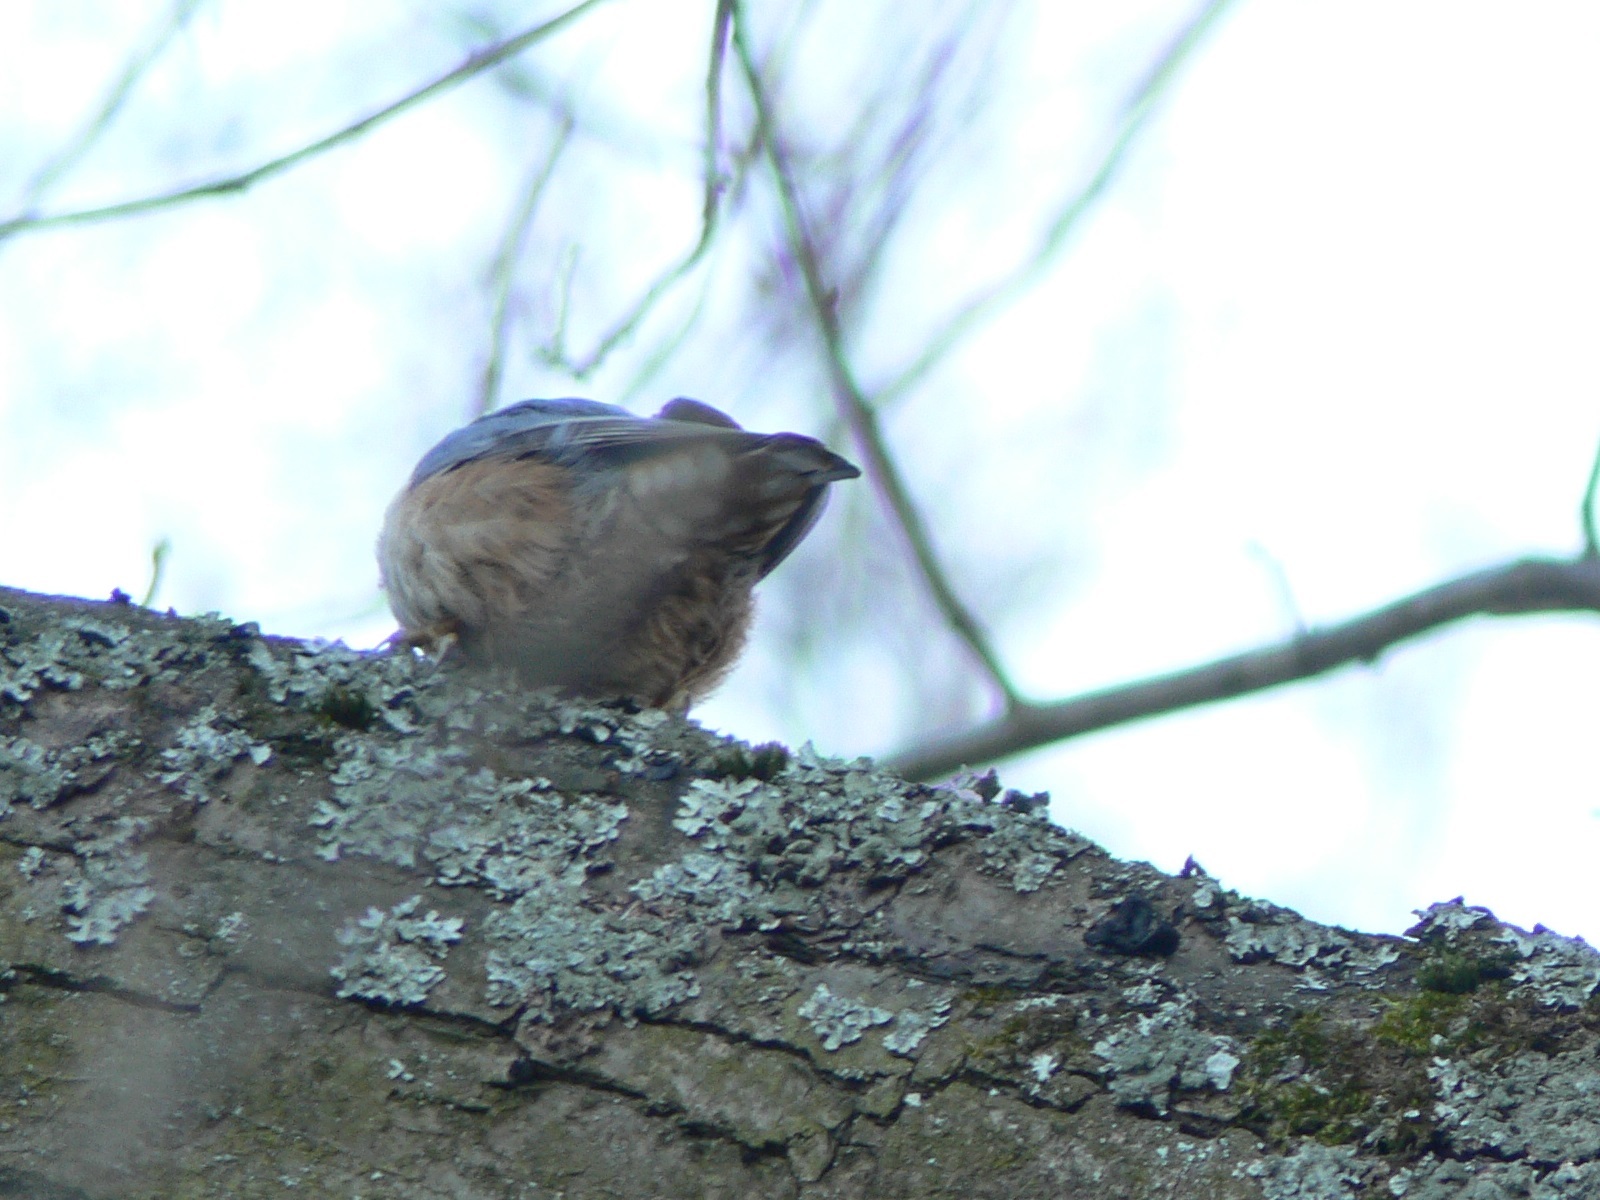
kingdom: Animalia
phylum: Chordata
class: Aves
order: Passeriformes
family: Sittidae
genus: Sitta
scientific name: Sitta europaea
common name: Eurasian nuthatch
